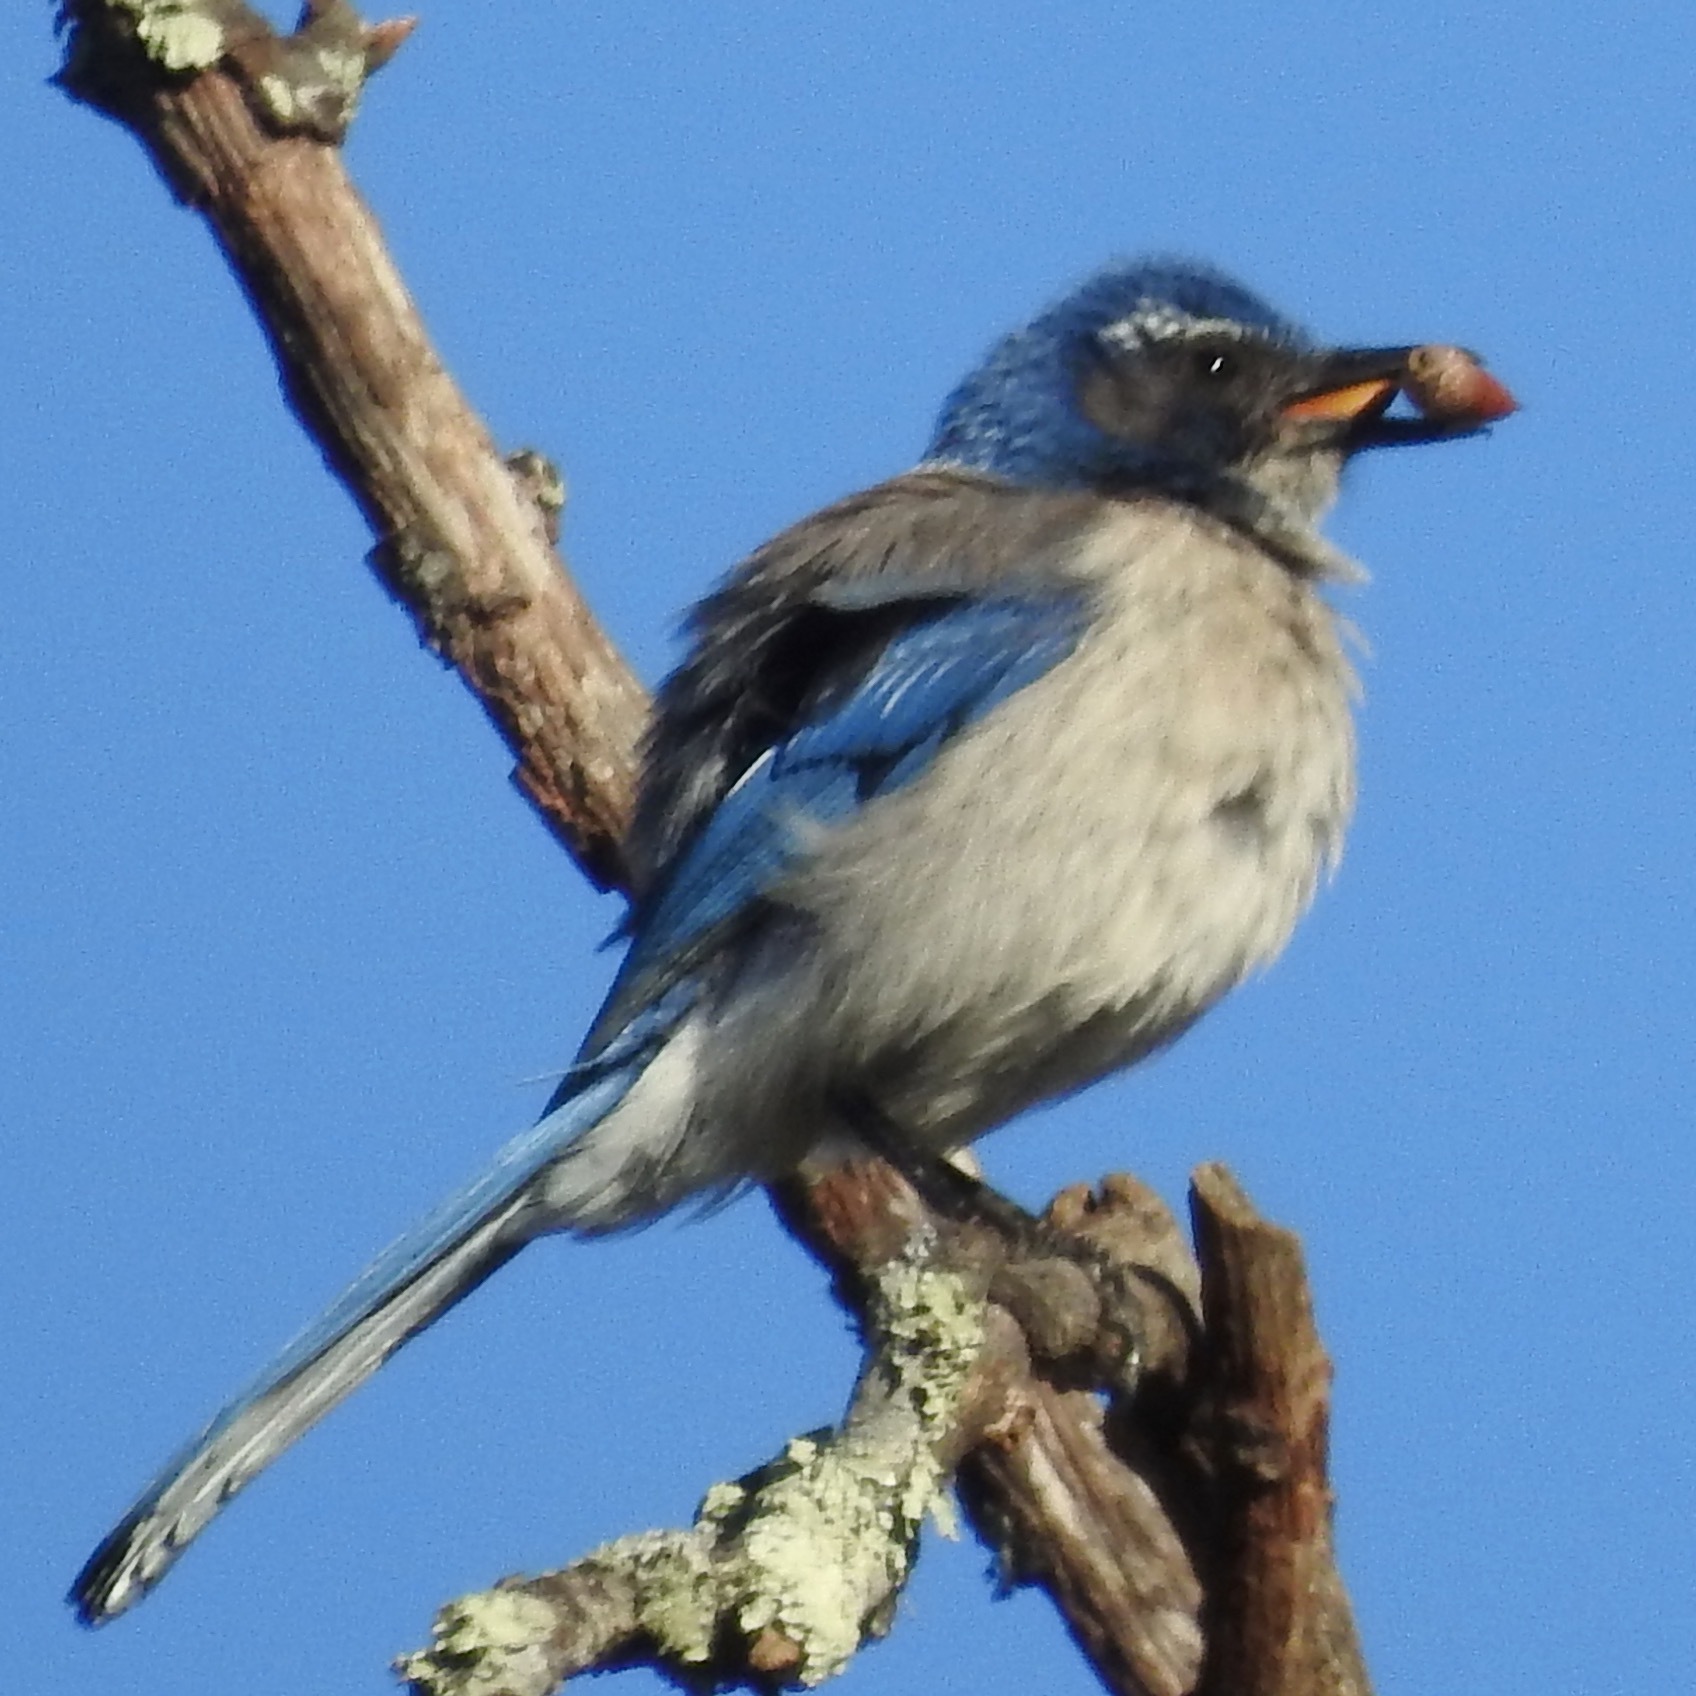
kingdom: Animalia
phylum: Chordata
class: Aves
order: Passeriformes
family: Corvidae
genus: Aphelocoma
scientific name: Aphelocoma californica
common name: California scrub-jay
